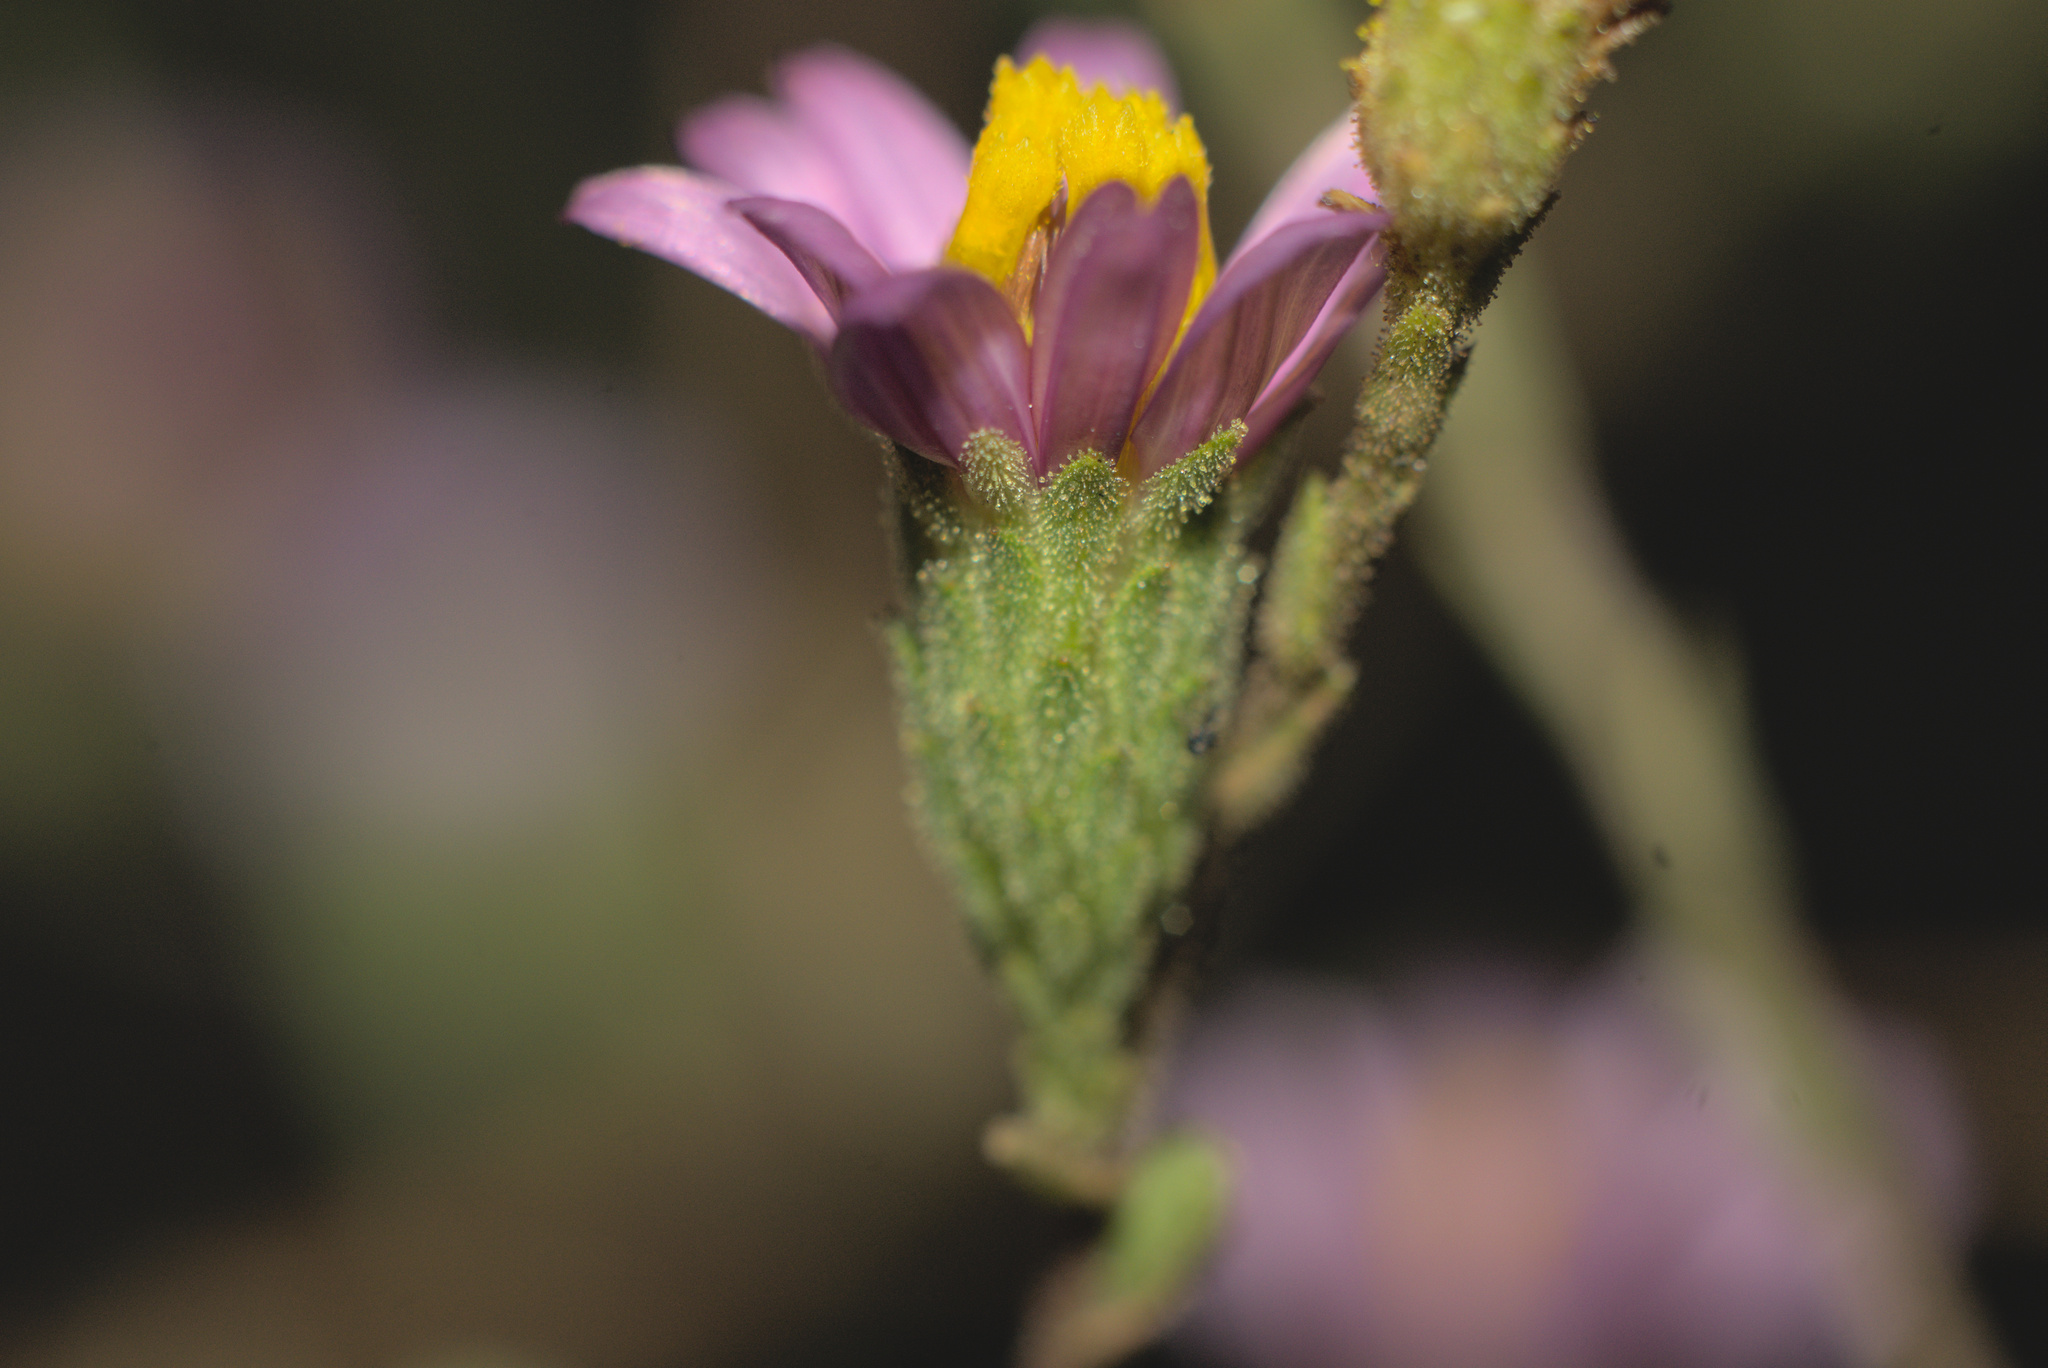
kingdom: Plantae
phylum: Tracheophyta
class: Magnoliopsida
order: Asterales
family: Asteraceae
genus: Corethrogyne
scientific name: Corethrogyne filaginifolia
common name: Sand-aster
